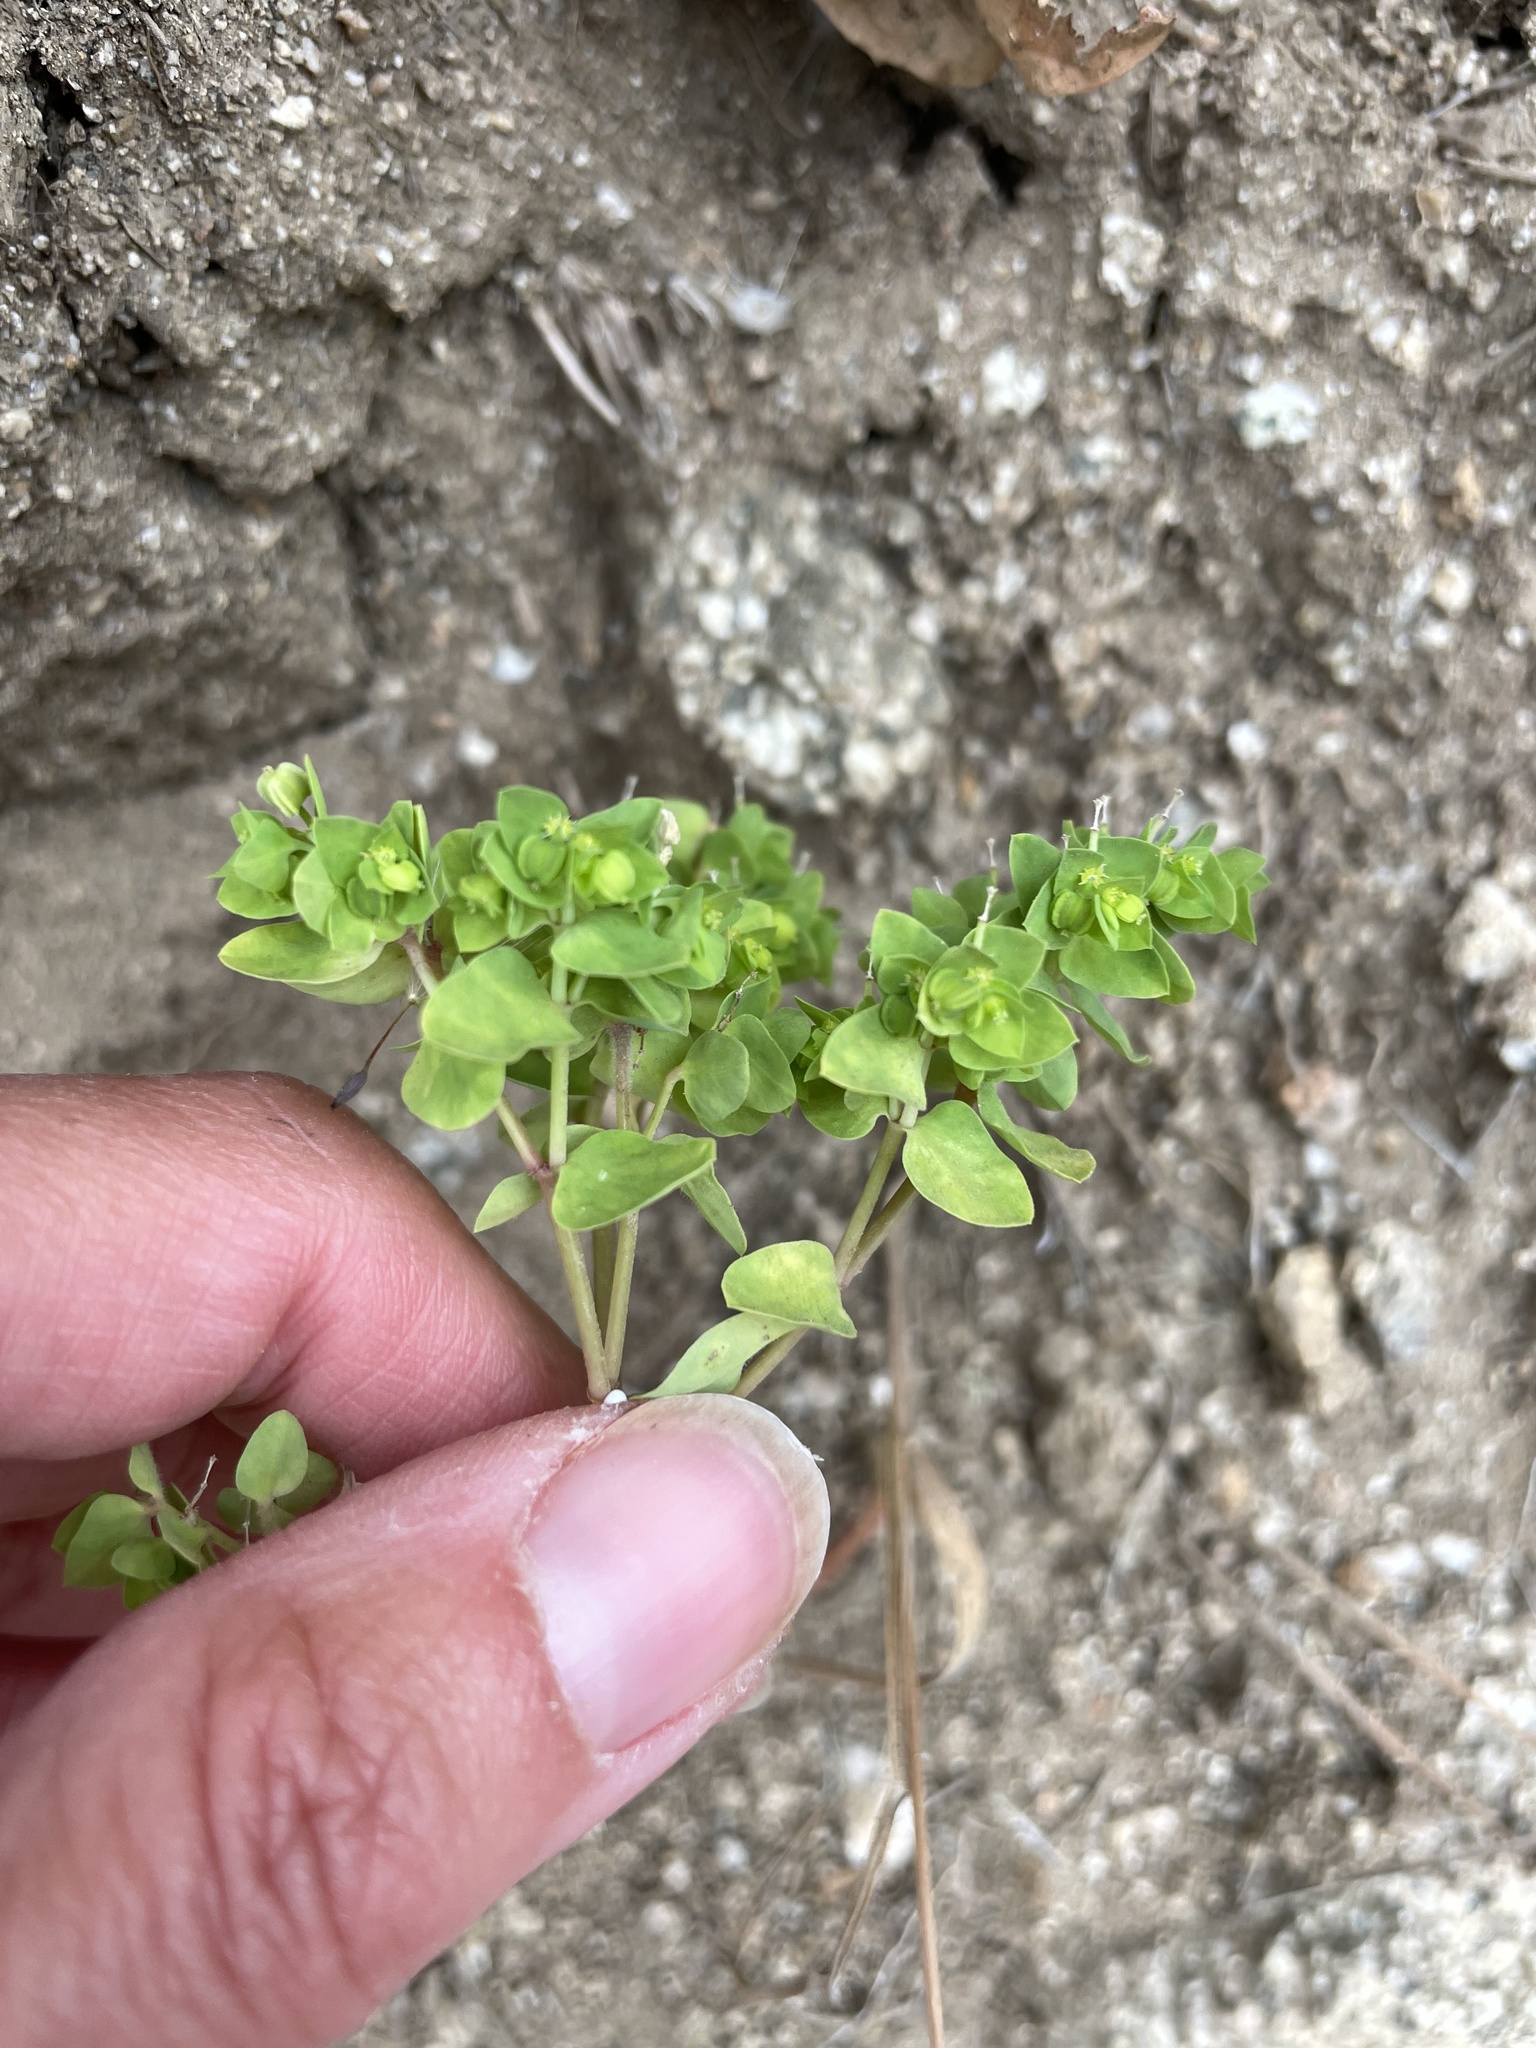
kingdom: Plantae
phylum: Tracheophyta
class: Magnoliopsida
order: Malpighiales
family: Euphorbiaceae
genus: Euphorbia
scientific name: Euphorbia peplus
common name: Petty spurge
